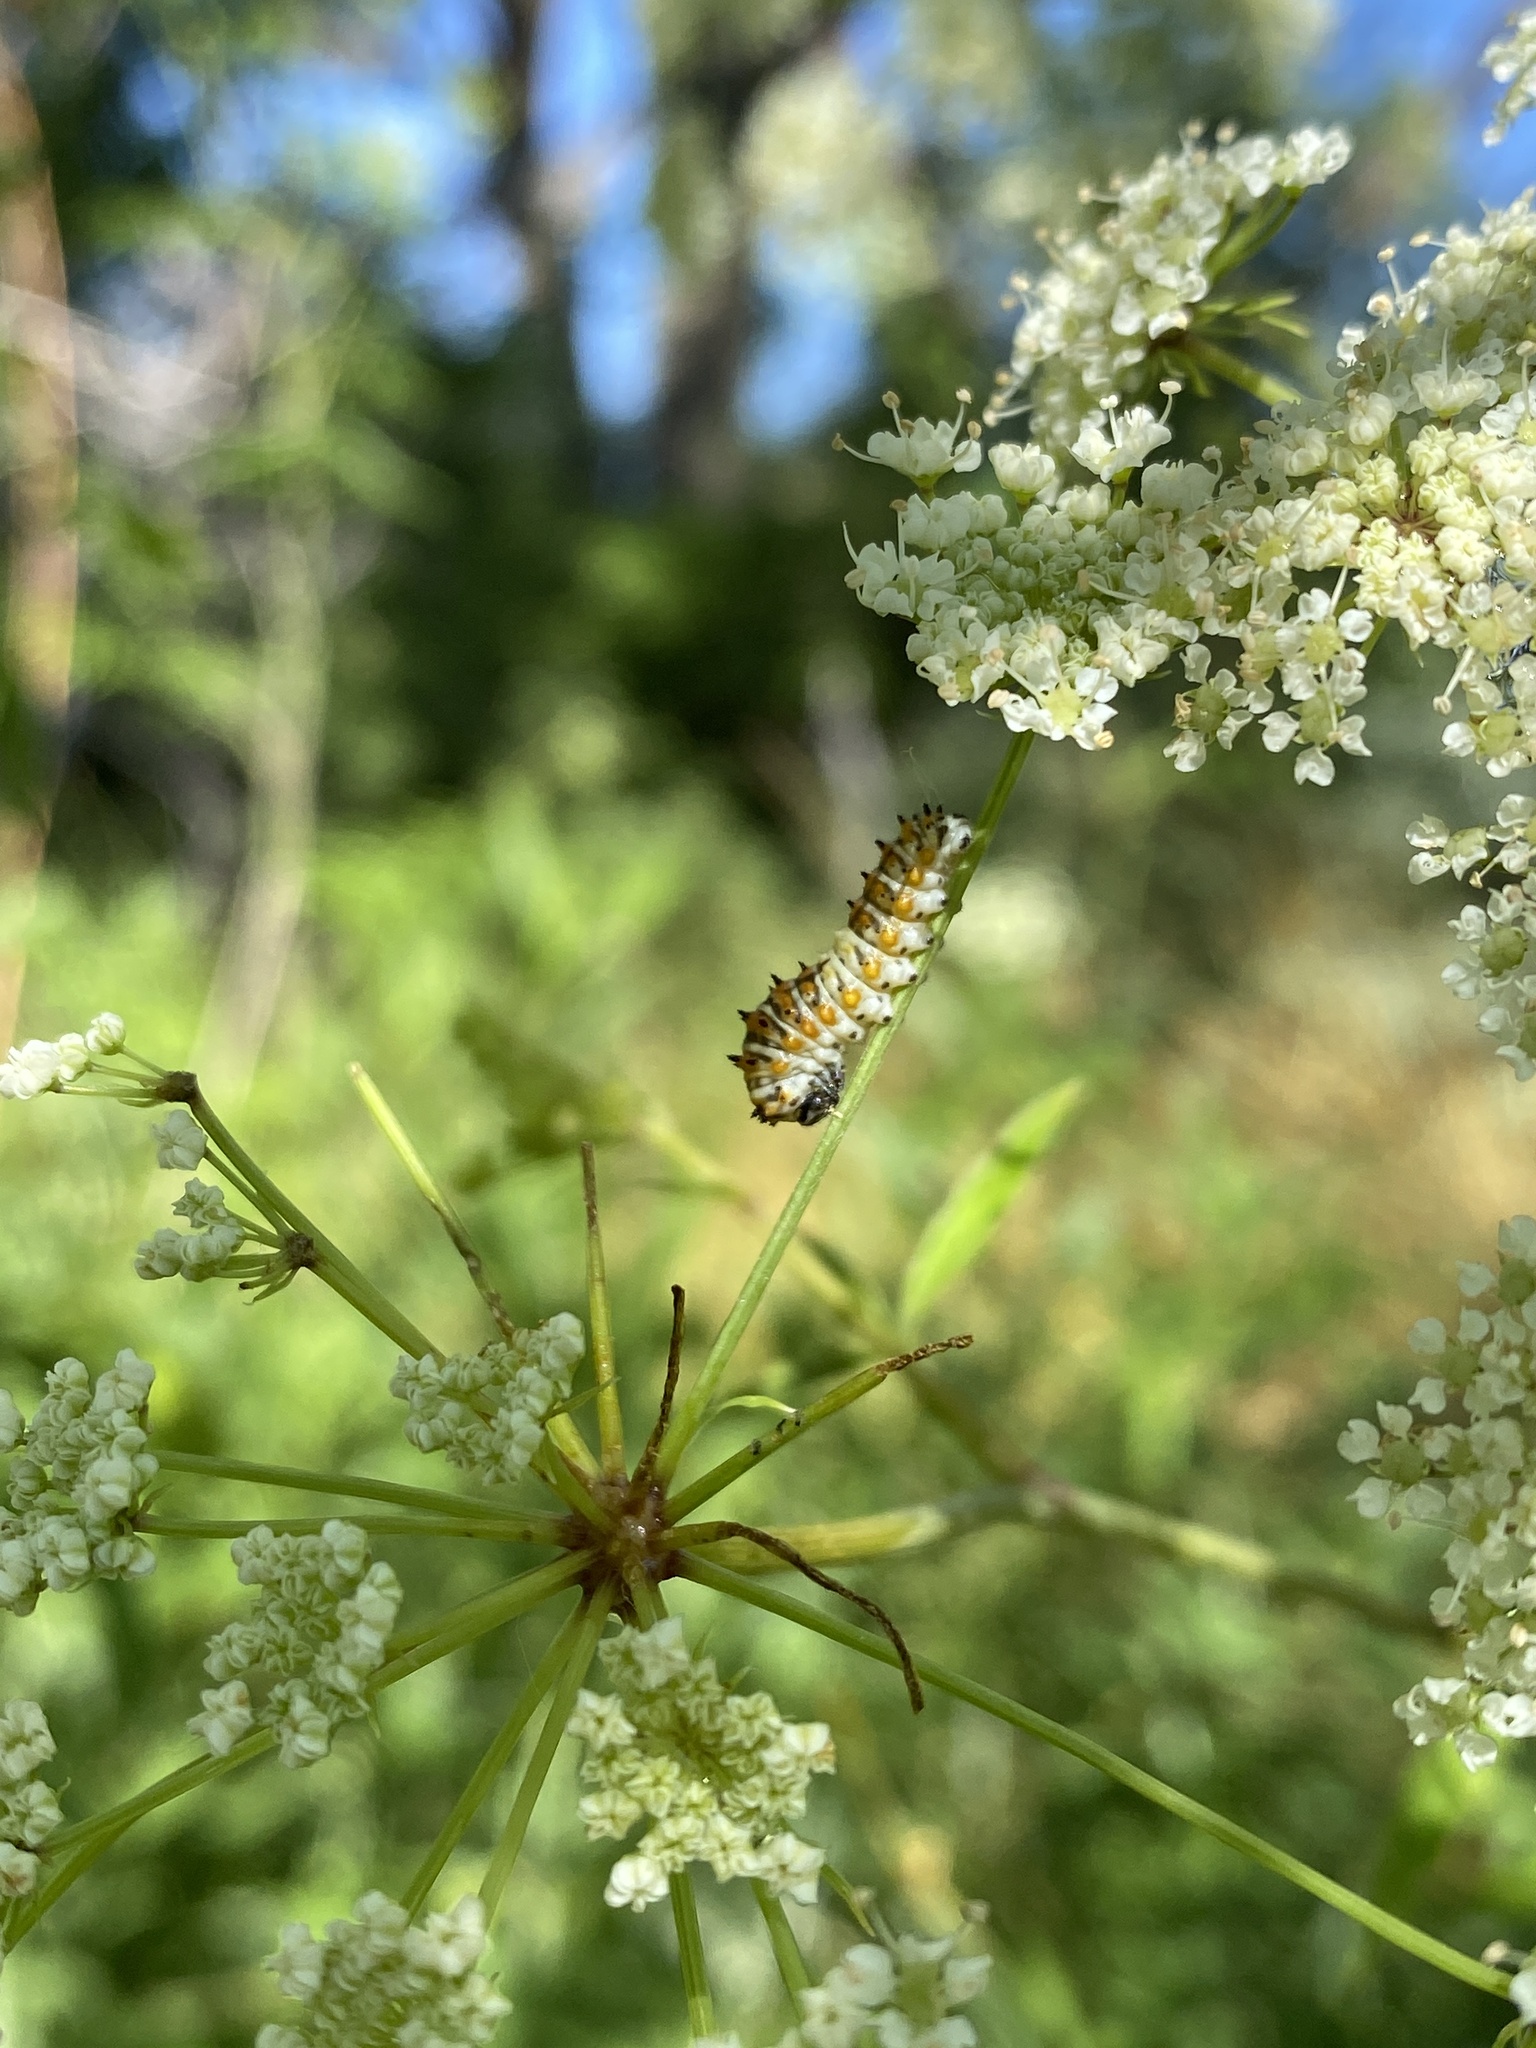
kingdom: Animalia
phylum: Arthropoda
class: Insecta
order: Lepidoptera
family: Papilionidae
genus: Papilio
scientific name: Papilio polyxenes
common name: Black swallowtail
